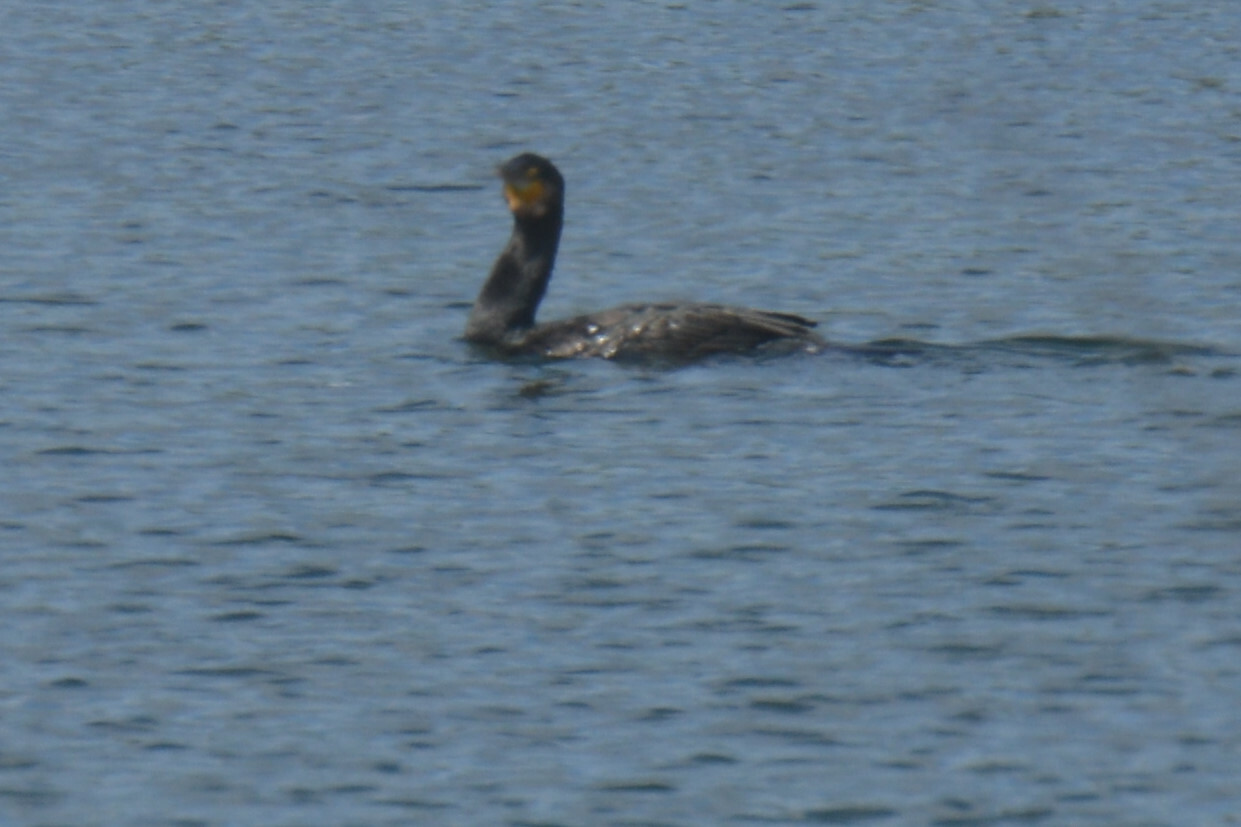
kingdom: Animalia
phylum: Chordata
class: Aves
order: Suliformes
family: Phalacrocoracidae
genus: Phalacrocorax
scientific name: Phalacrocorax carbo
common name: Great cormorant
